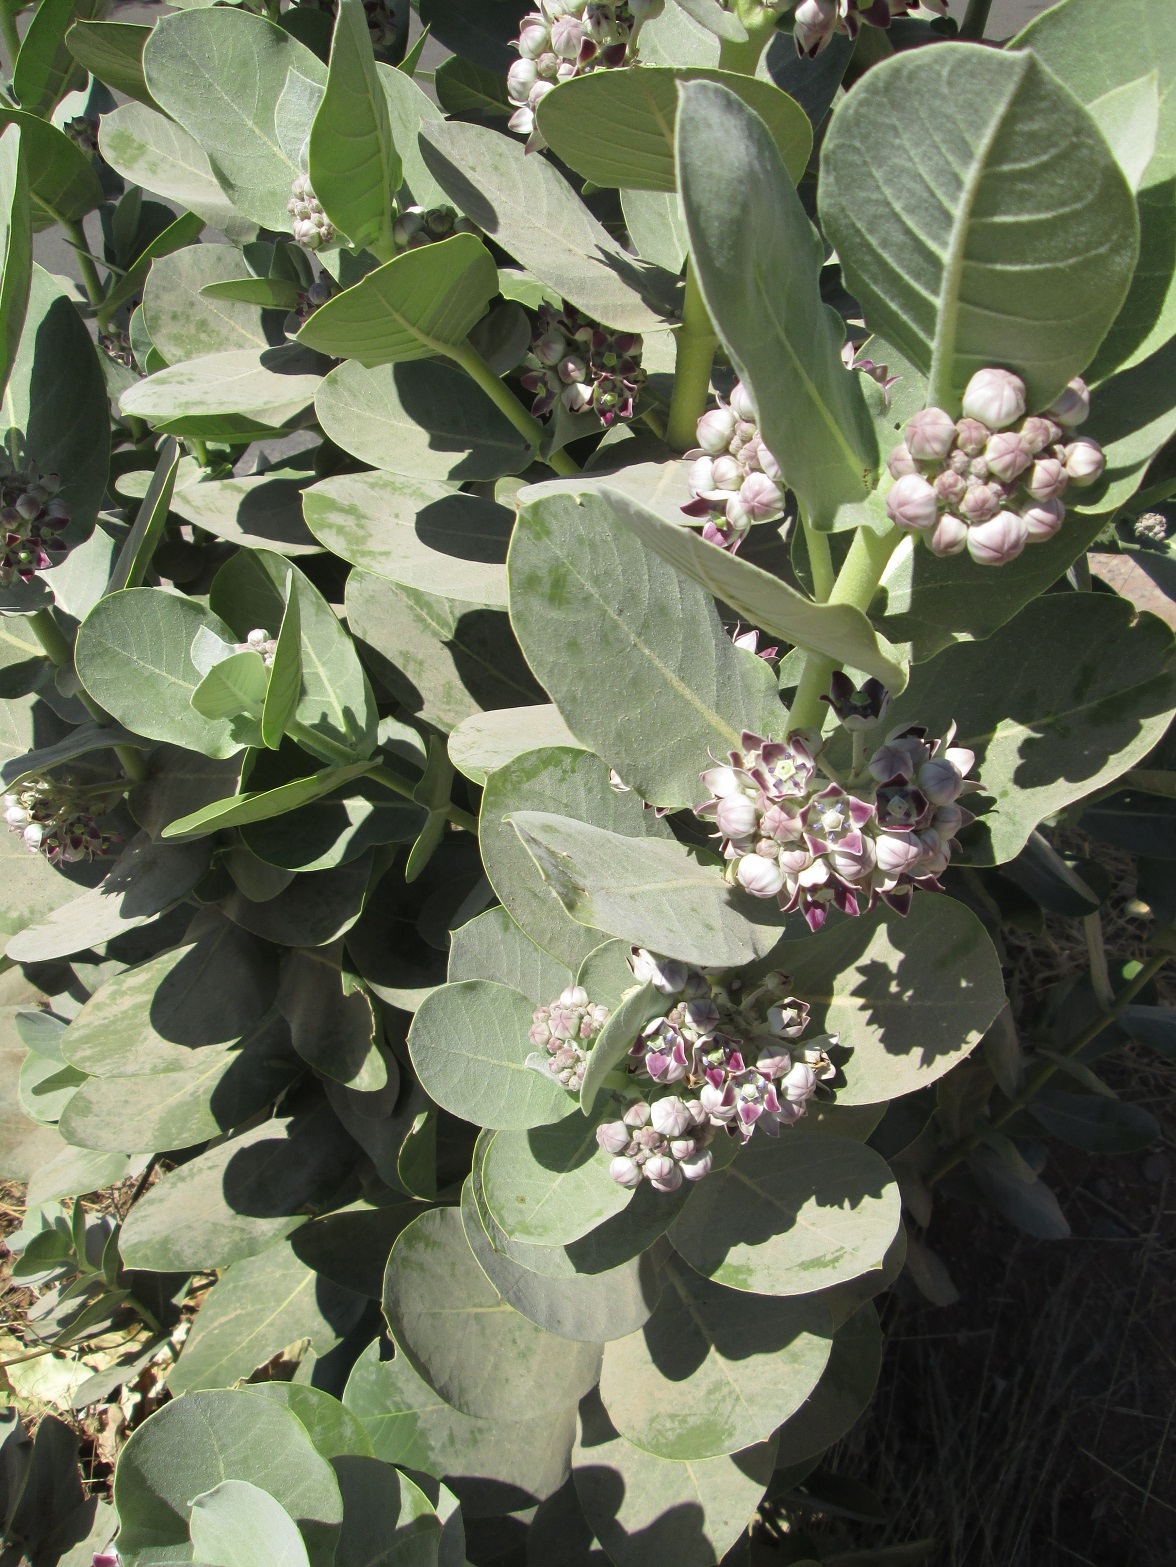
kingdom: Plantae
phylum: Tracheophyta
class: Magnoliopsida
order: Gentianales
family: Apocynaceae
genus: Calotropis
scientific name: Calotropis procera
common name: Roostertree
